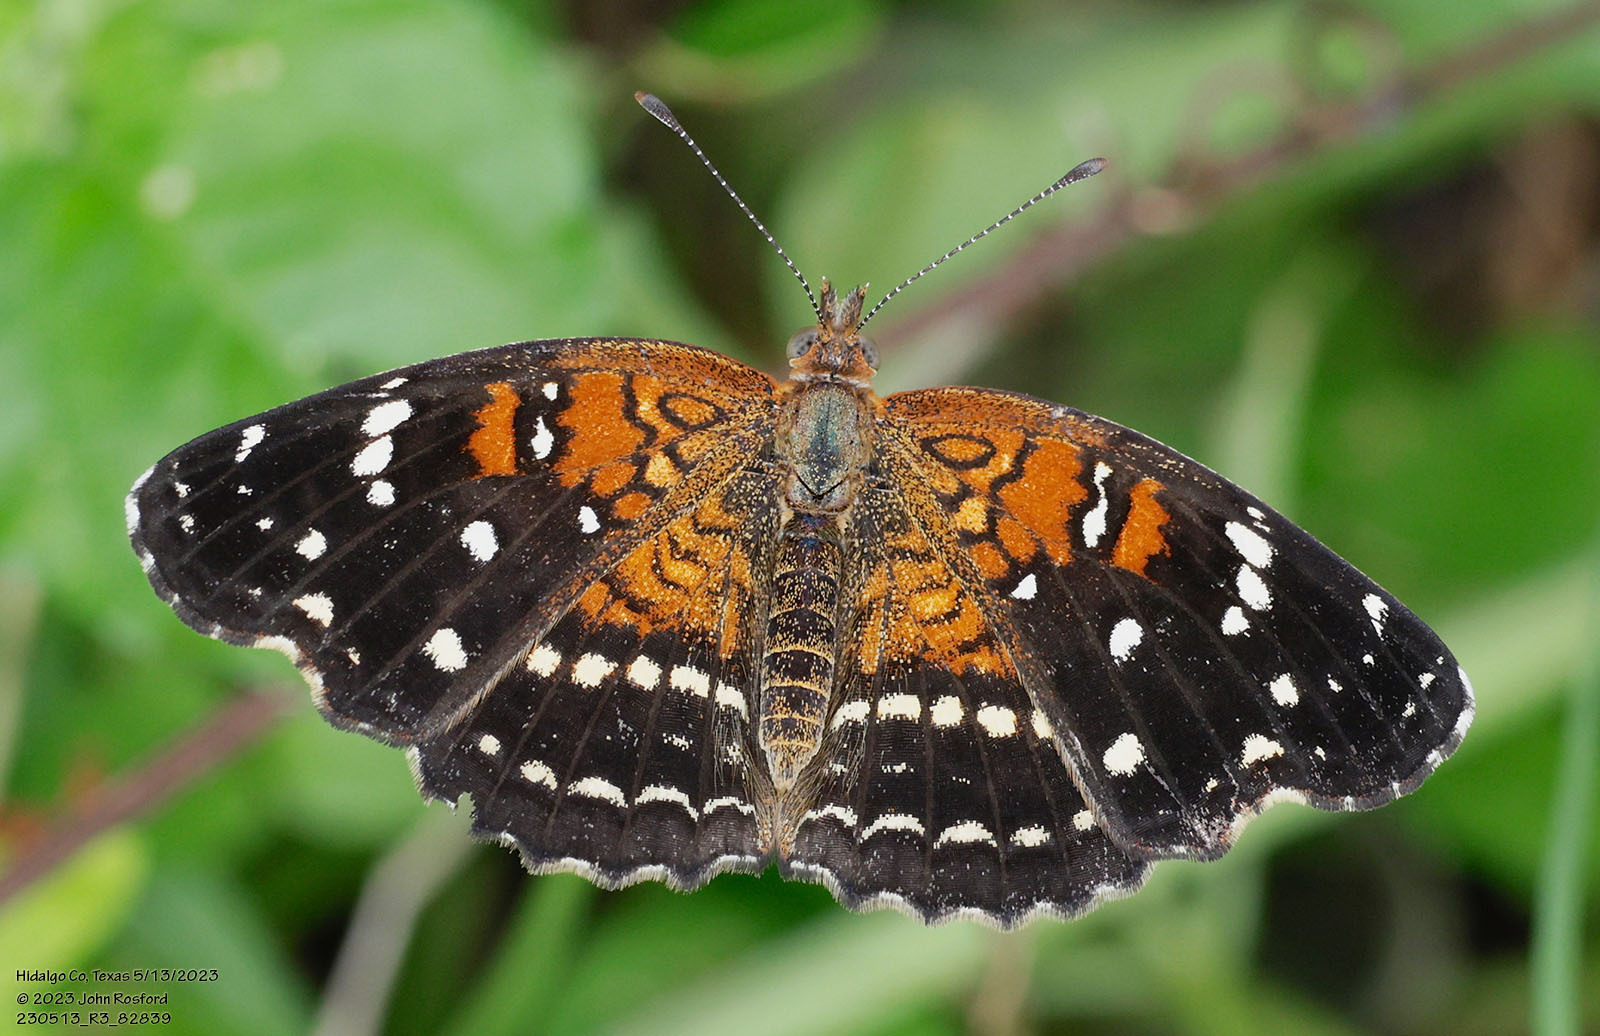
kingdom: Animalia
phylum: Arthropoda
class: Insecta
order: Lepidoptera
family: Nymphalidae
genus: Anthanassa
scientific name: Anthanassa texana
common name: Texan crescent
